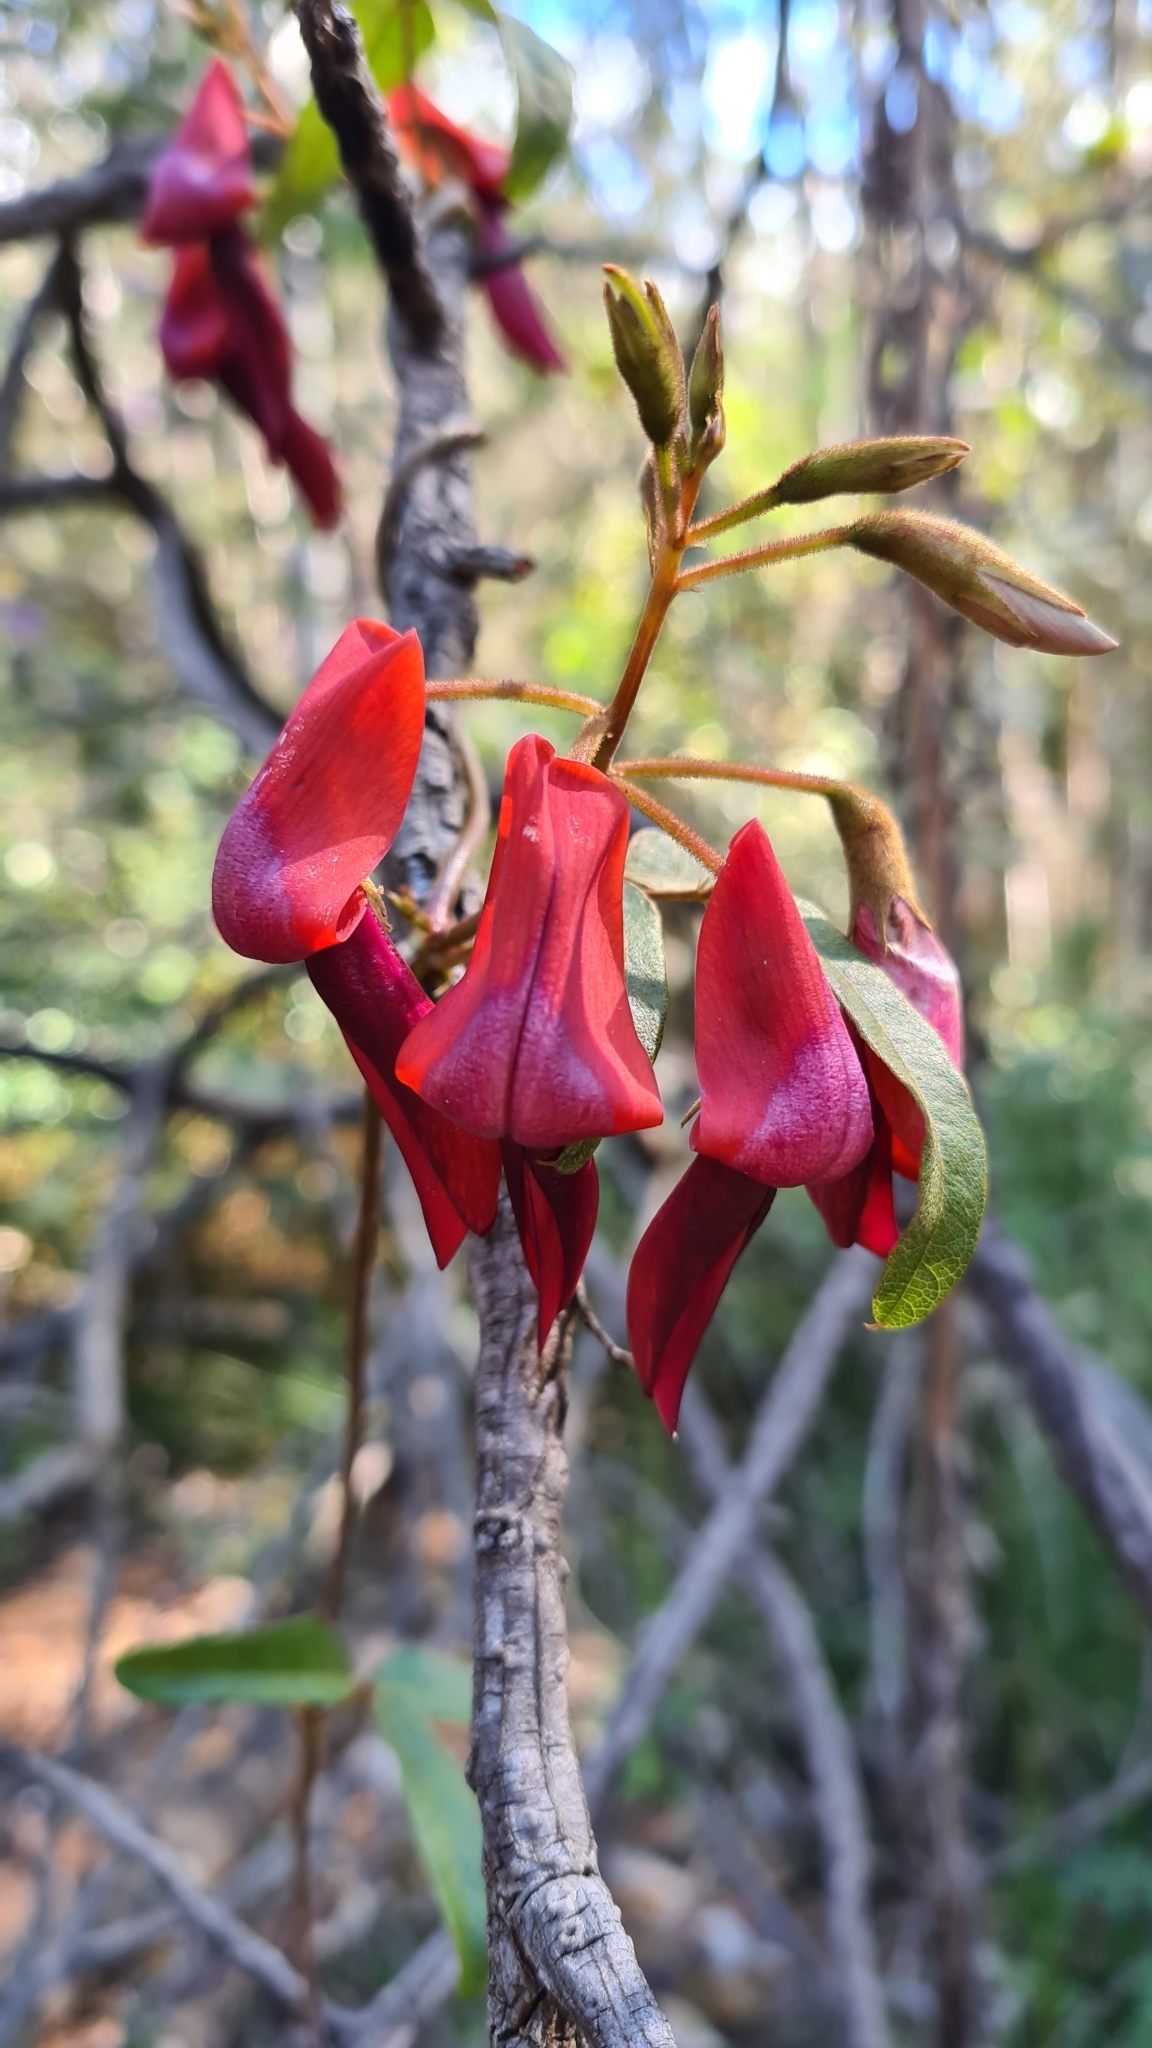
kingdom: Plantae
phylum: Tracheophyta
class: Magnoliopsida
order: Fabales
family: Fabaceae
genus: Kennedia
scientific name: Kennedia rubicunda
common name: Red kennedy-pea
